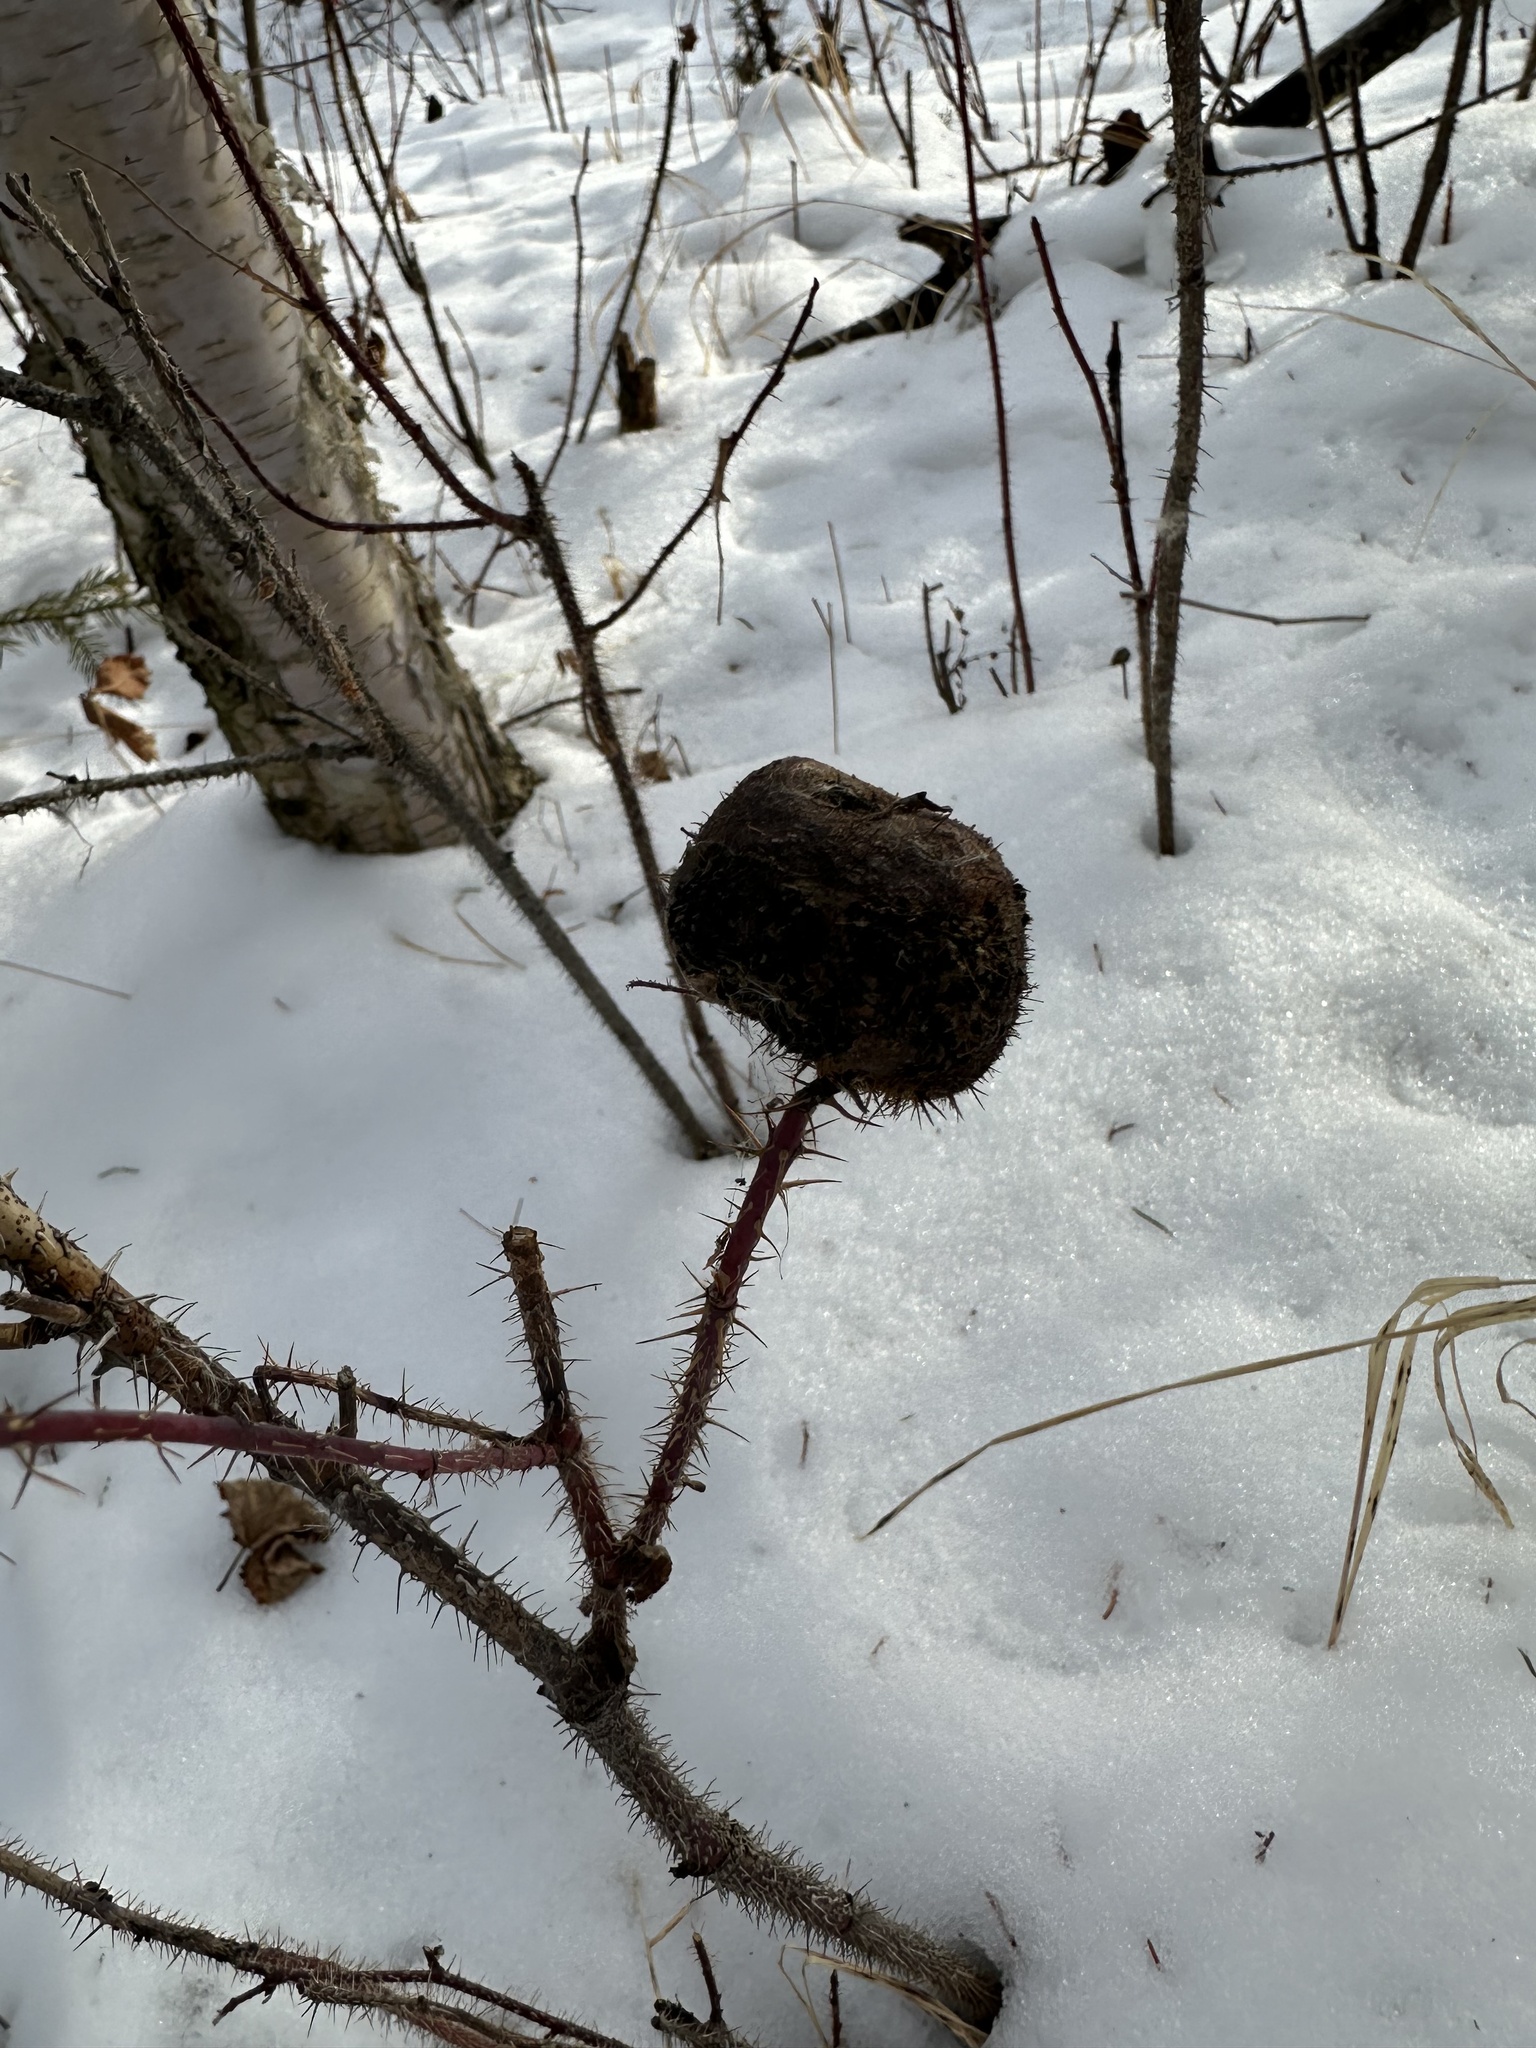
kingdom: Animalia
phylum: Arthropoda
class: Insecta
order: Hymenoptera
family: Cynipidae
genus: Diplolepis
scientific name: Diplolepis spinosa
